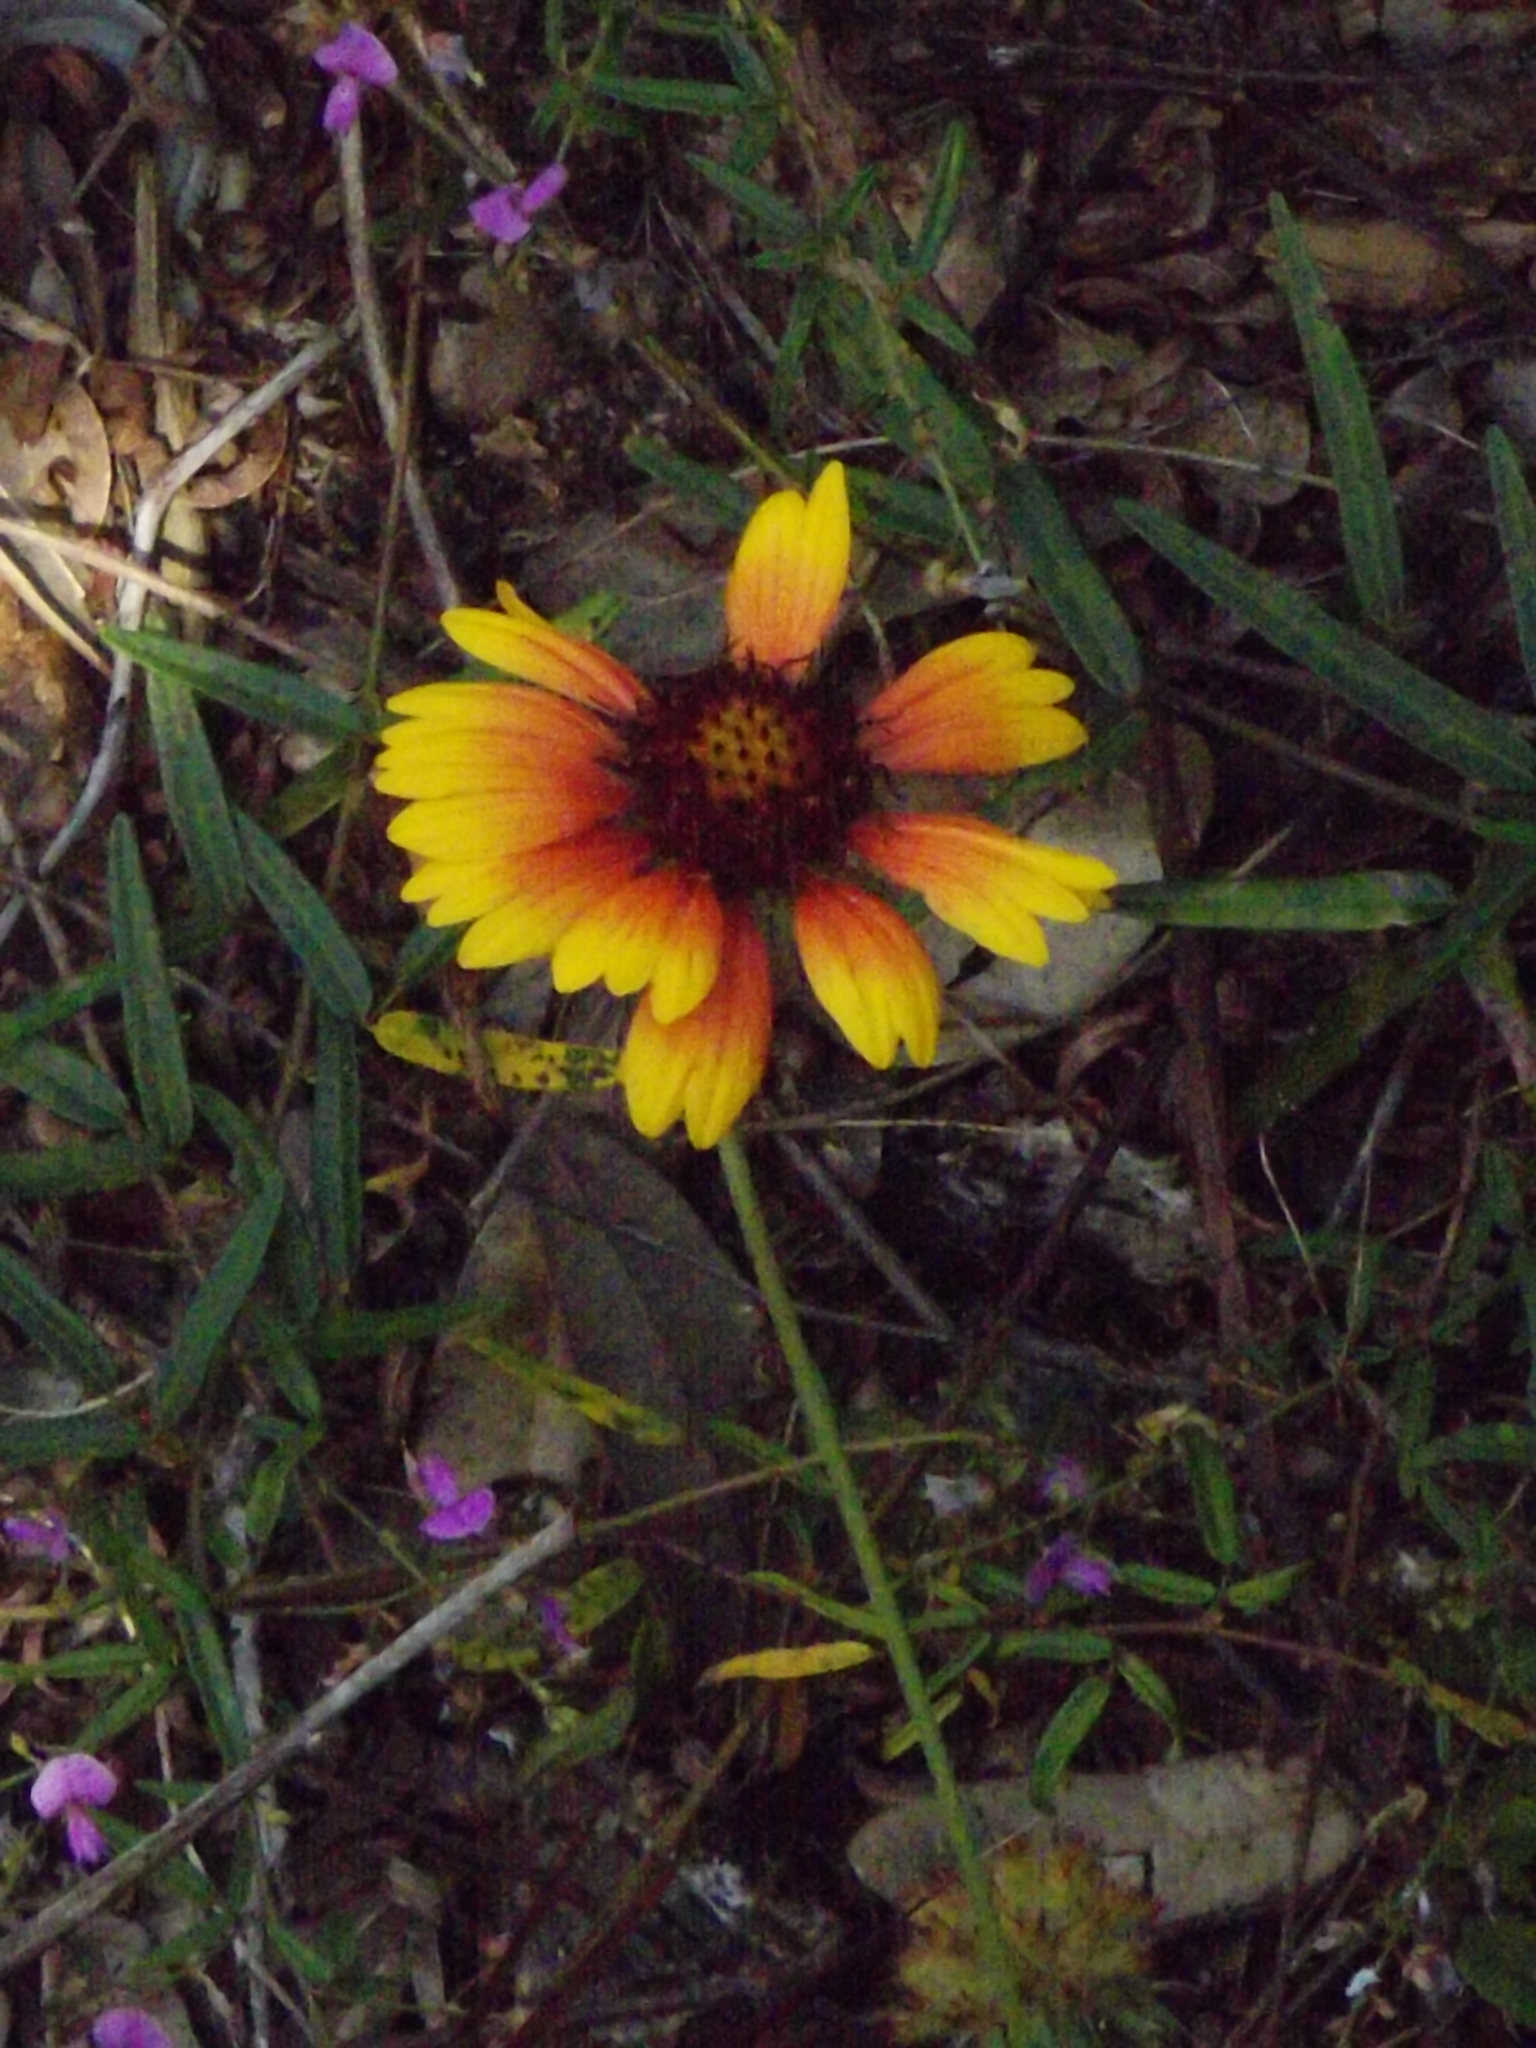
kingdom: Plantae
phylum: Tracheophyta
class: Magnoliopsida
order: Asterales
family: Asteraceae
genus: Gaillardia
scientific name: Gaillardia pulchella
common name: Firewheel
